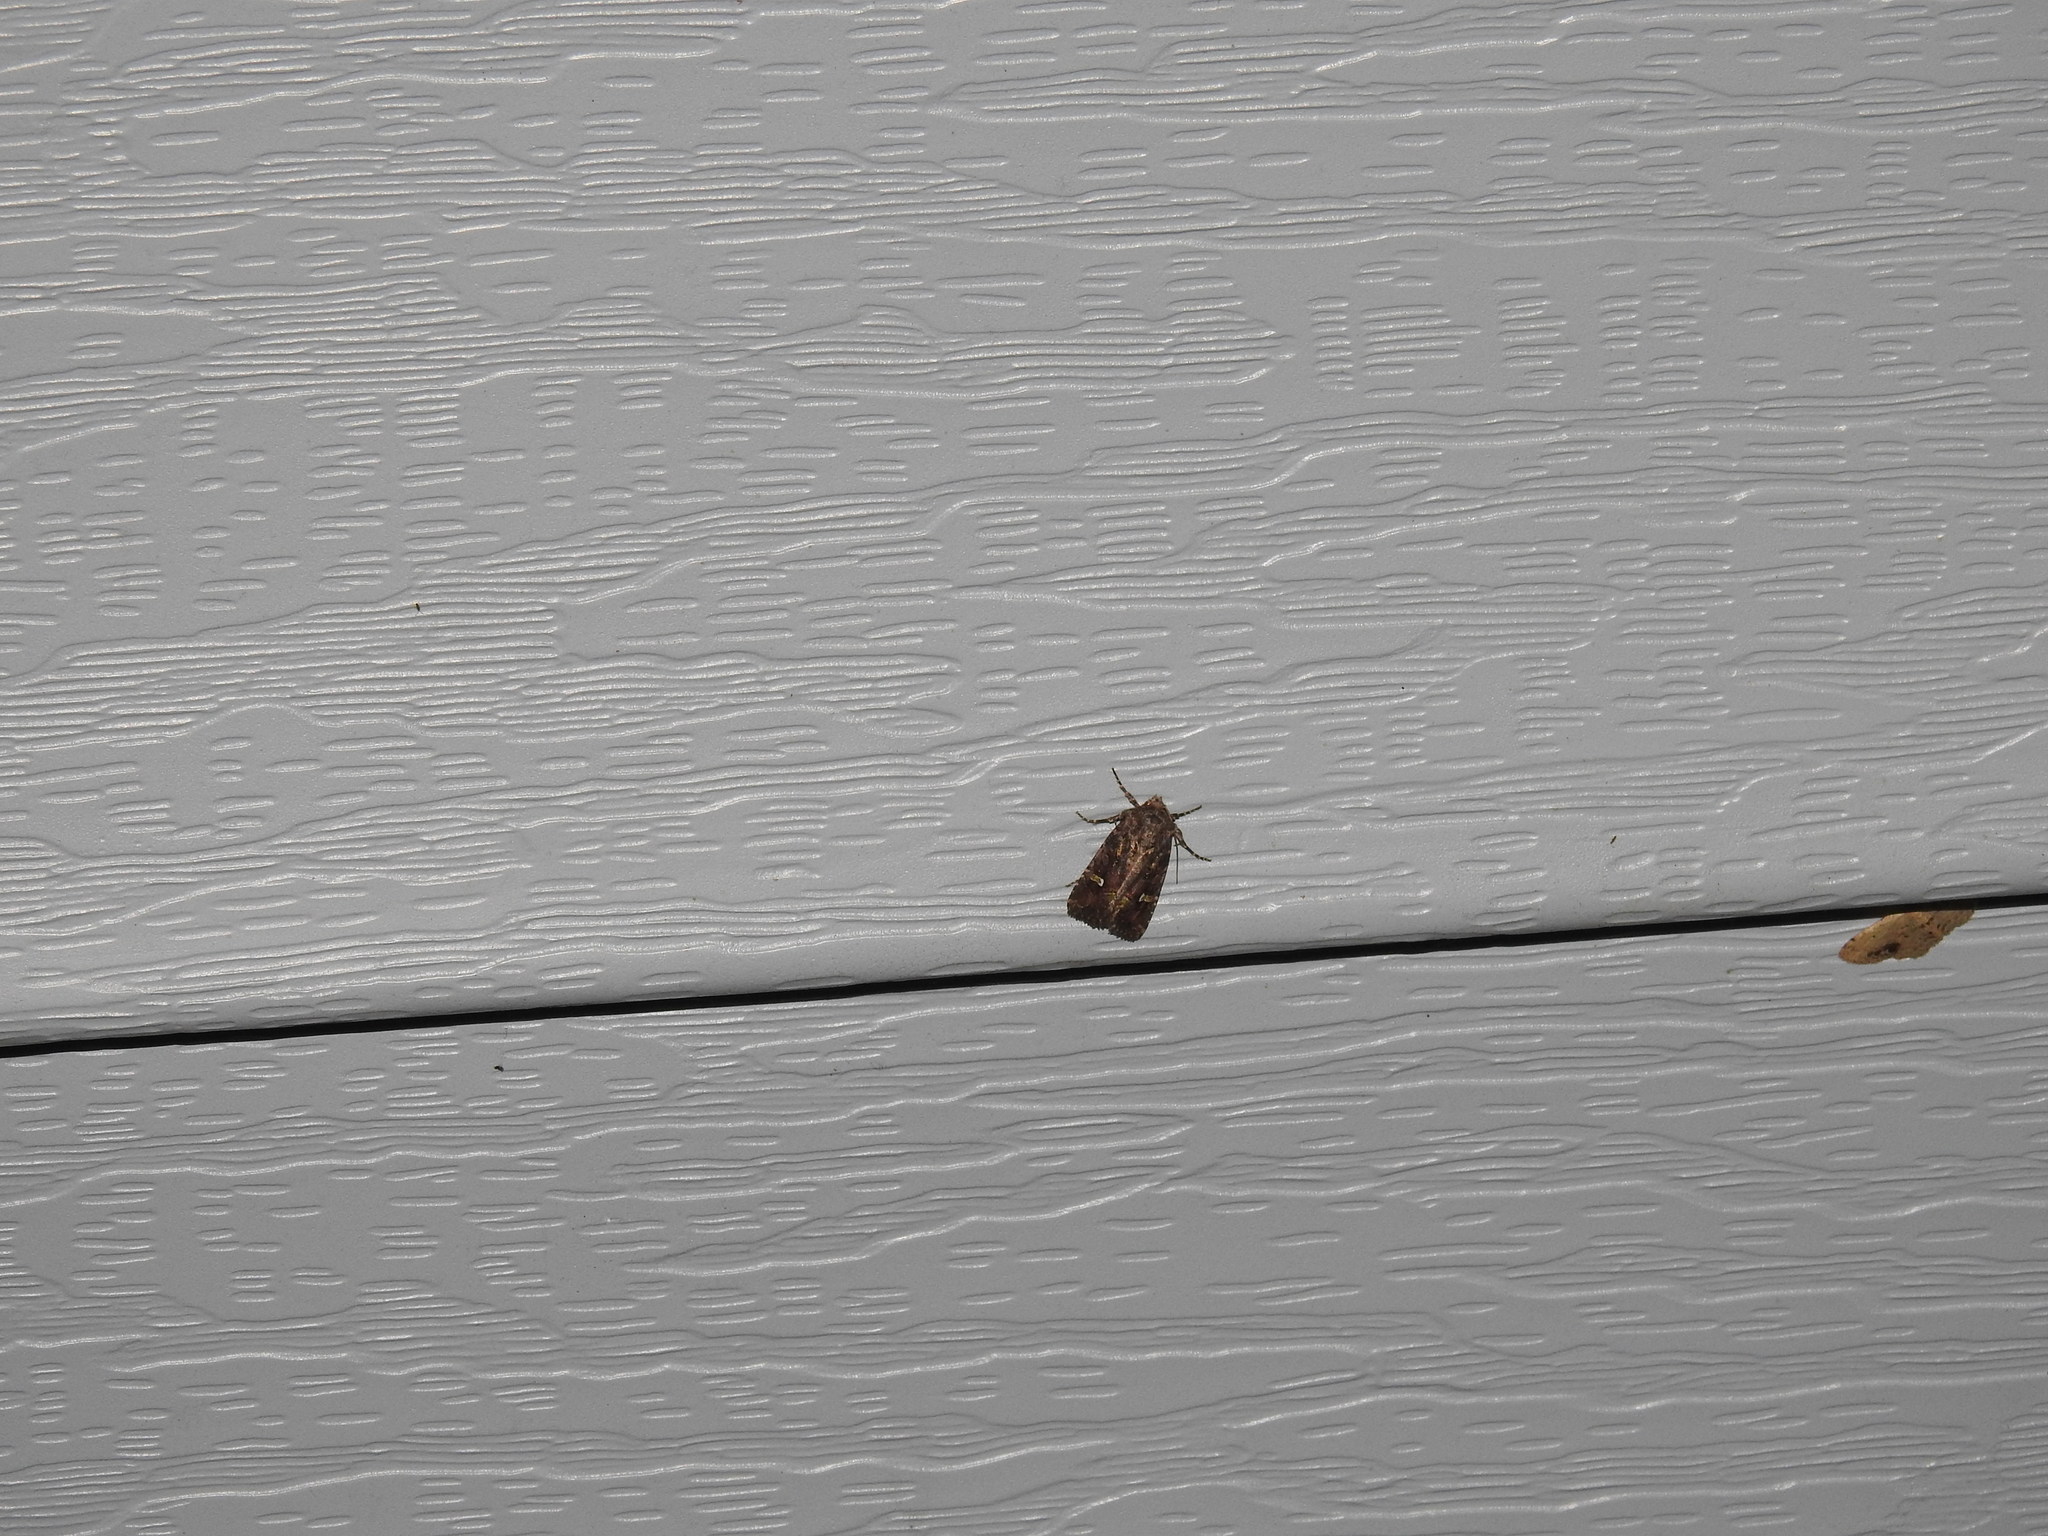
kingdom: Animalia
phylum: Arthropoda
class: Insecta
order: Lepidoptera
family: Noctuidae
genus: Lacinipolia
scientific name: Lacinipolia renigera
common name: Kidney-spotted minor
